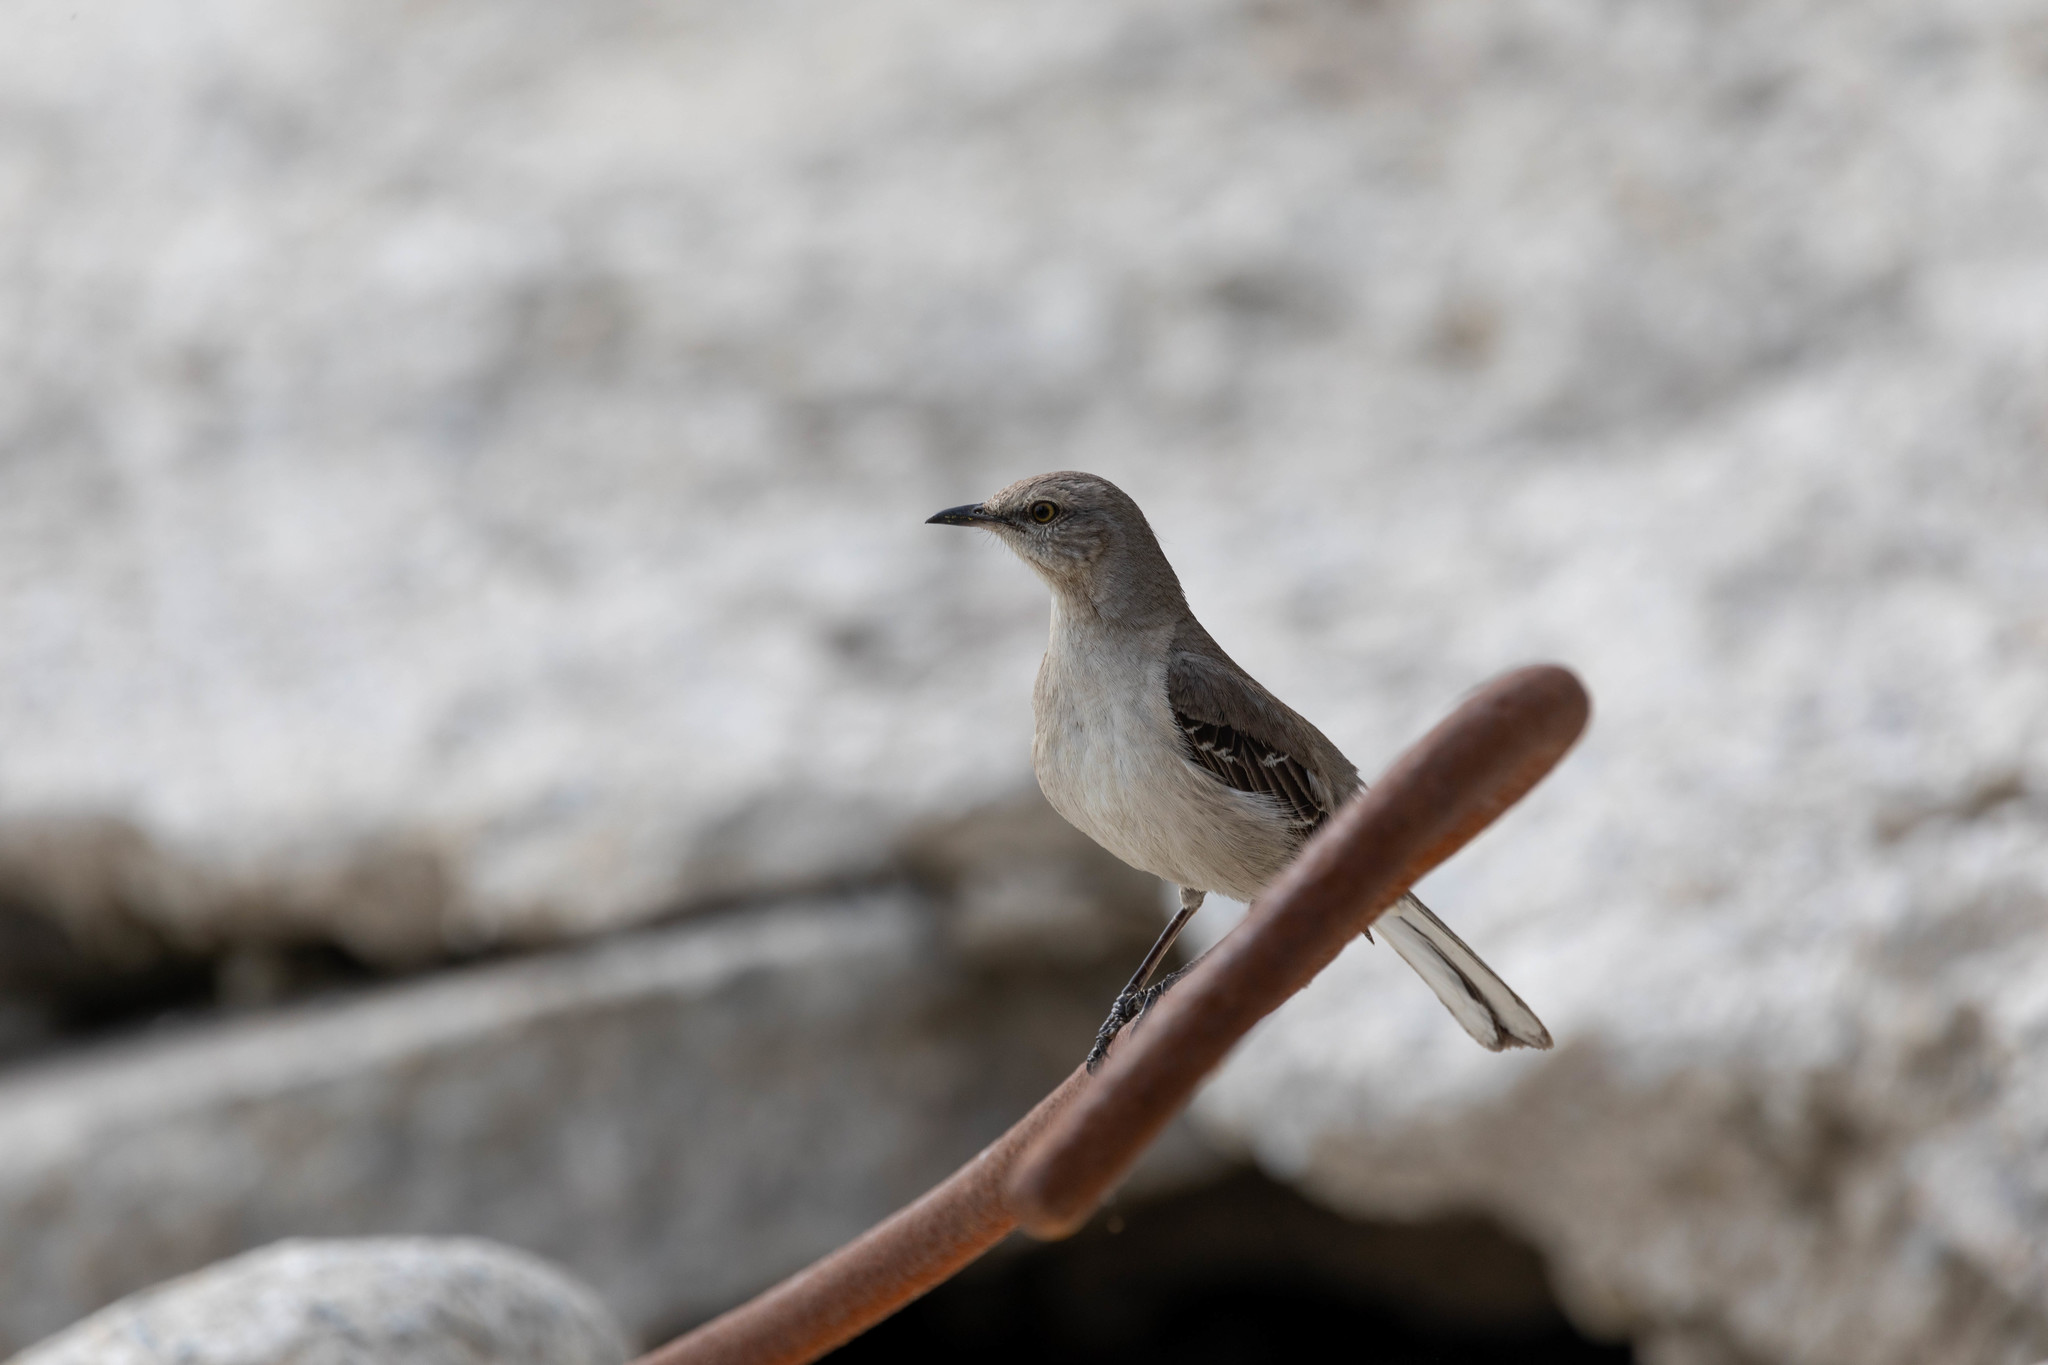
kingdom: Animalia
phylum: Chordata
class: Aves
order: Passeriformes
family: Mimidae
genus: Mimus
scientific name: Mimus polyglottos
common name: Northern mockingbird
